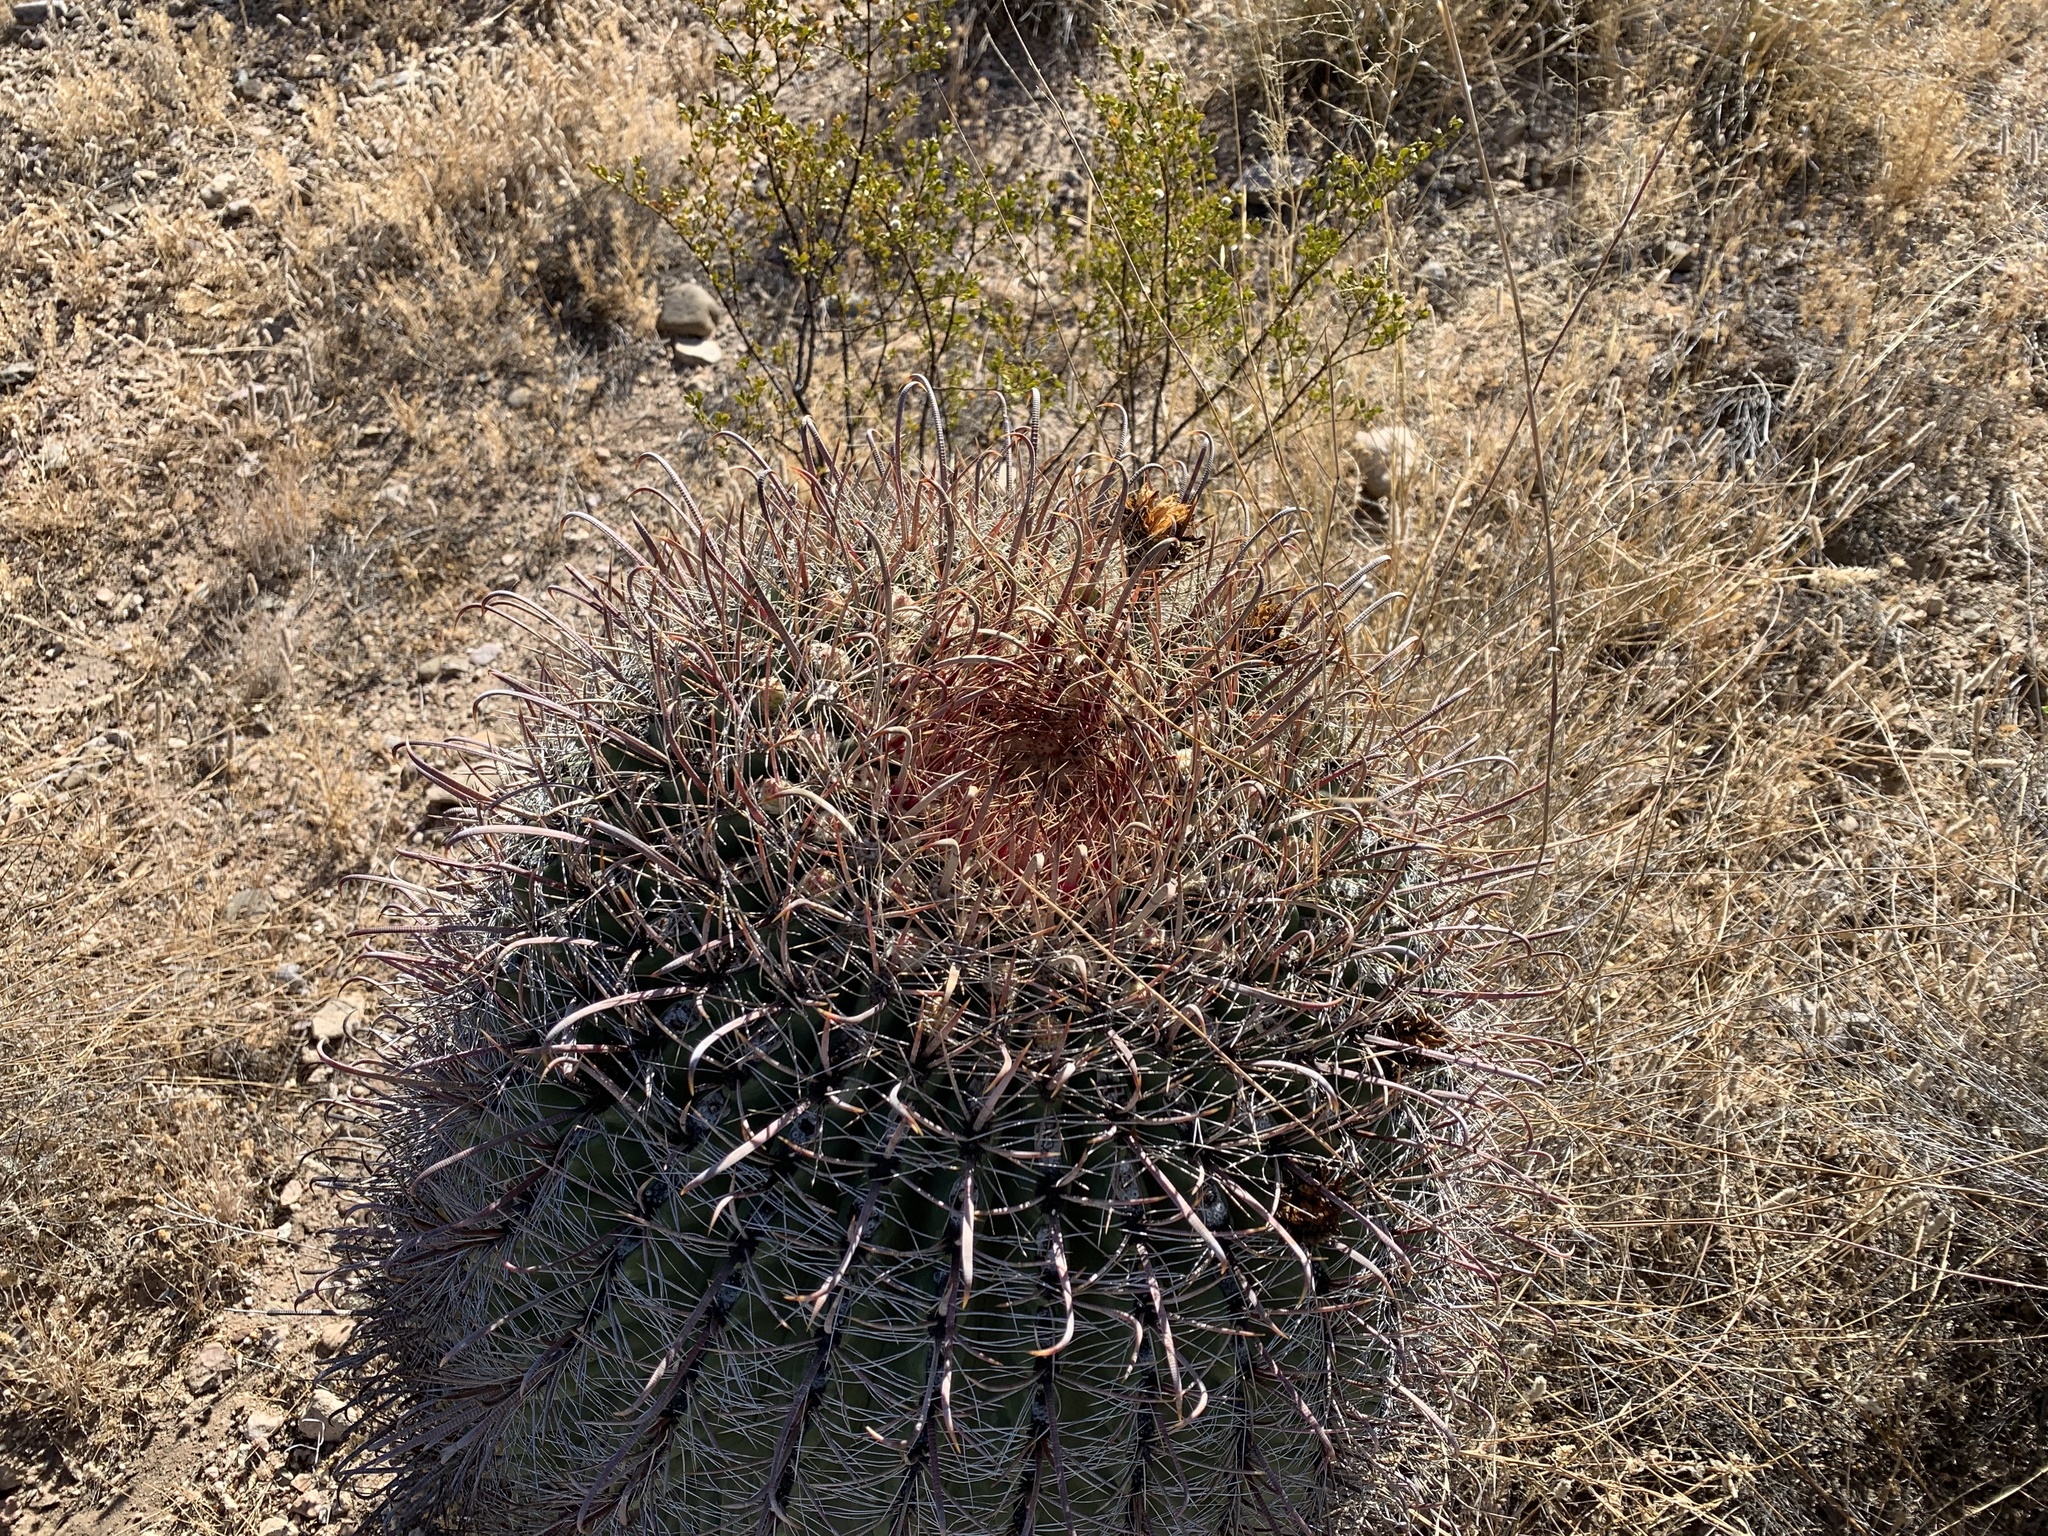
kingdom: Plantae
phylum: Tracheophyta
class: Magnoliopsida
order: Caryophyllales
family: Cactaceae
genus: Ferocactus
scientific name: Ferocactus wislizeni
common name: Candy barrel cactus
